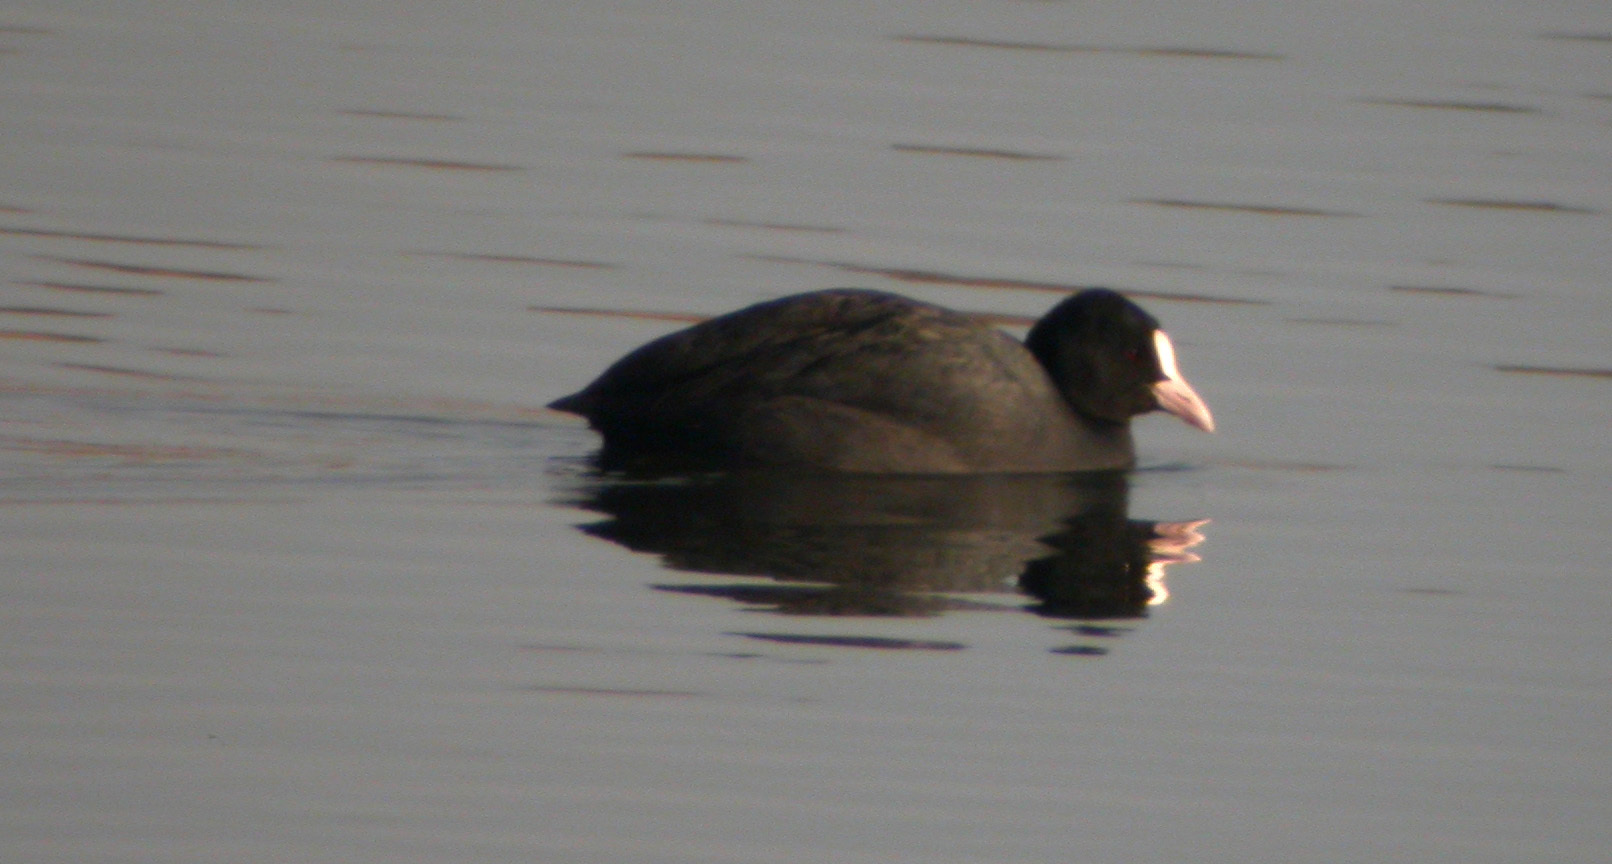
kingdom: Animalia
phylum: Chordata
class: Aves
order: Gruiformes
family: Rallidae
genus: Fulica
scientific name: Fulica atra
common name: Eurasian coot
